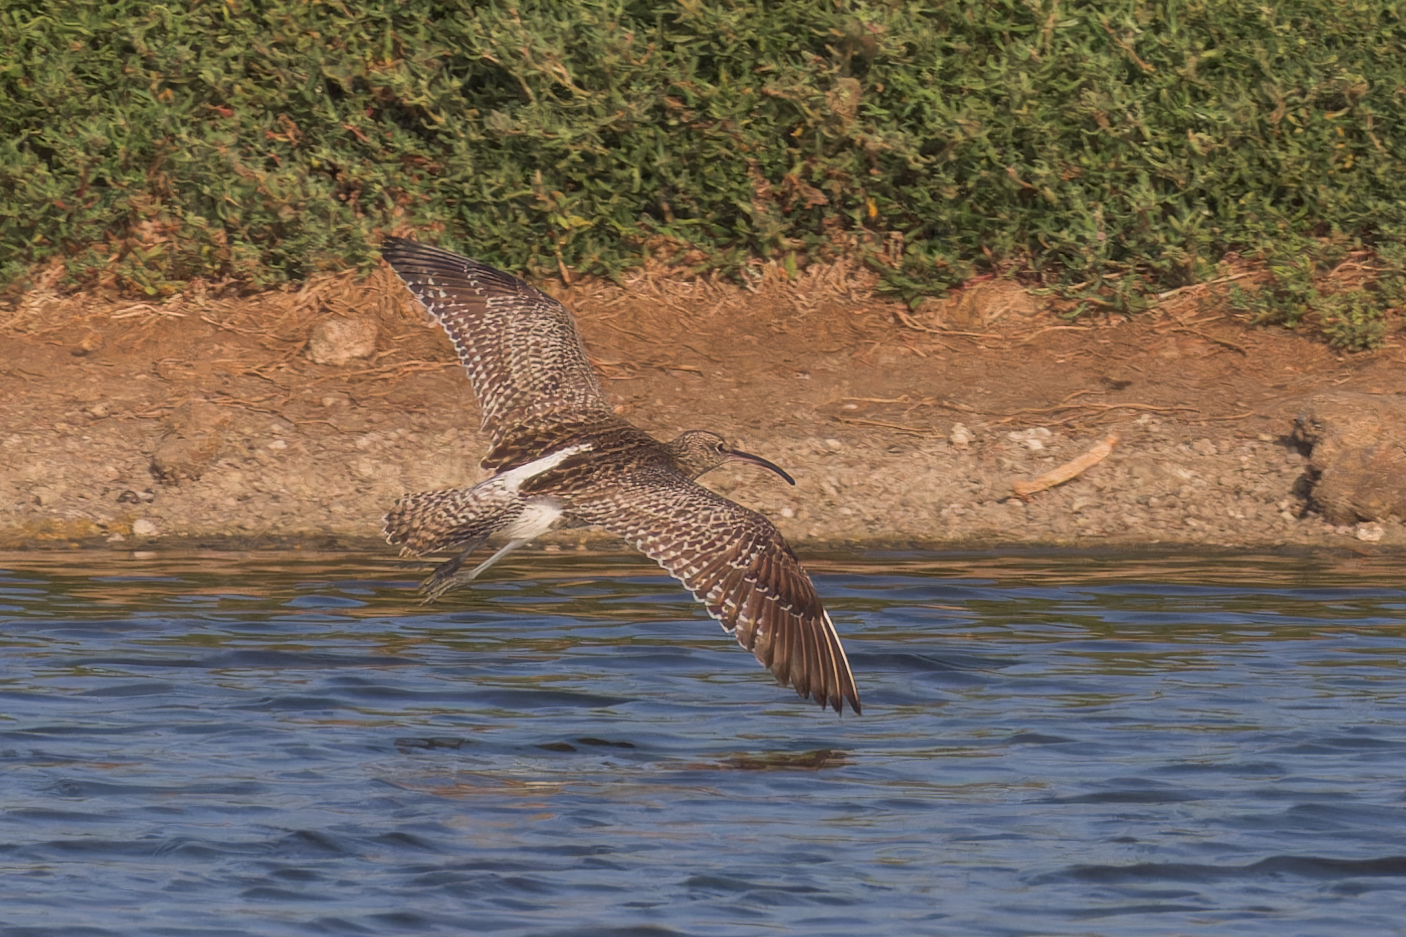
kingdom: Animalia
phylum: Chordata
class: Aves
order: Charadriiformes
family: Scolopacidae
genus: Numenius
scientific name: Numenius phaeopus
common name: Whimbrel
